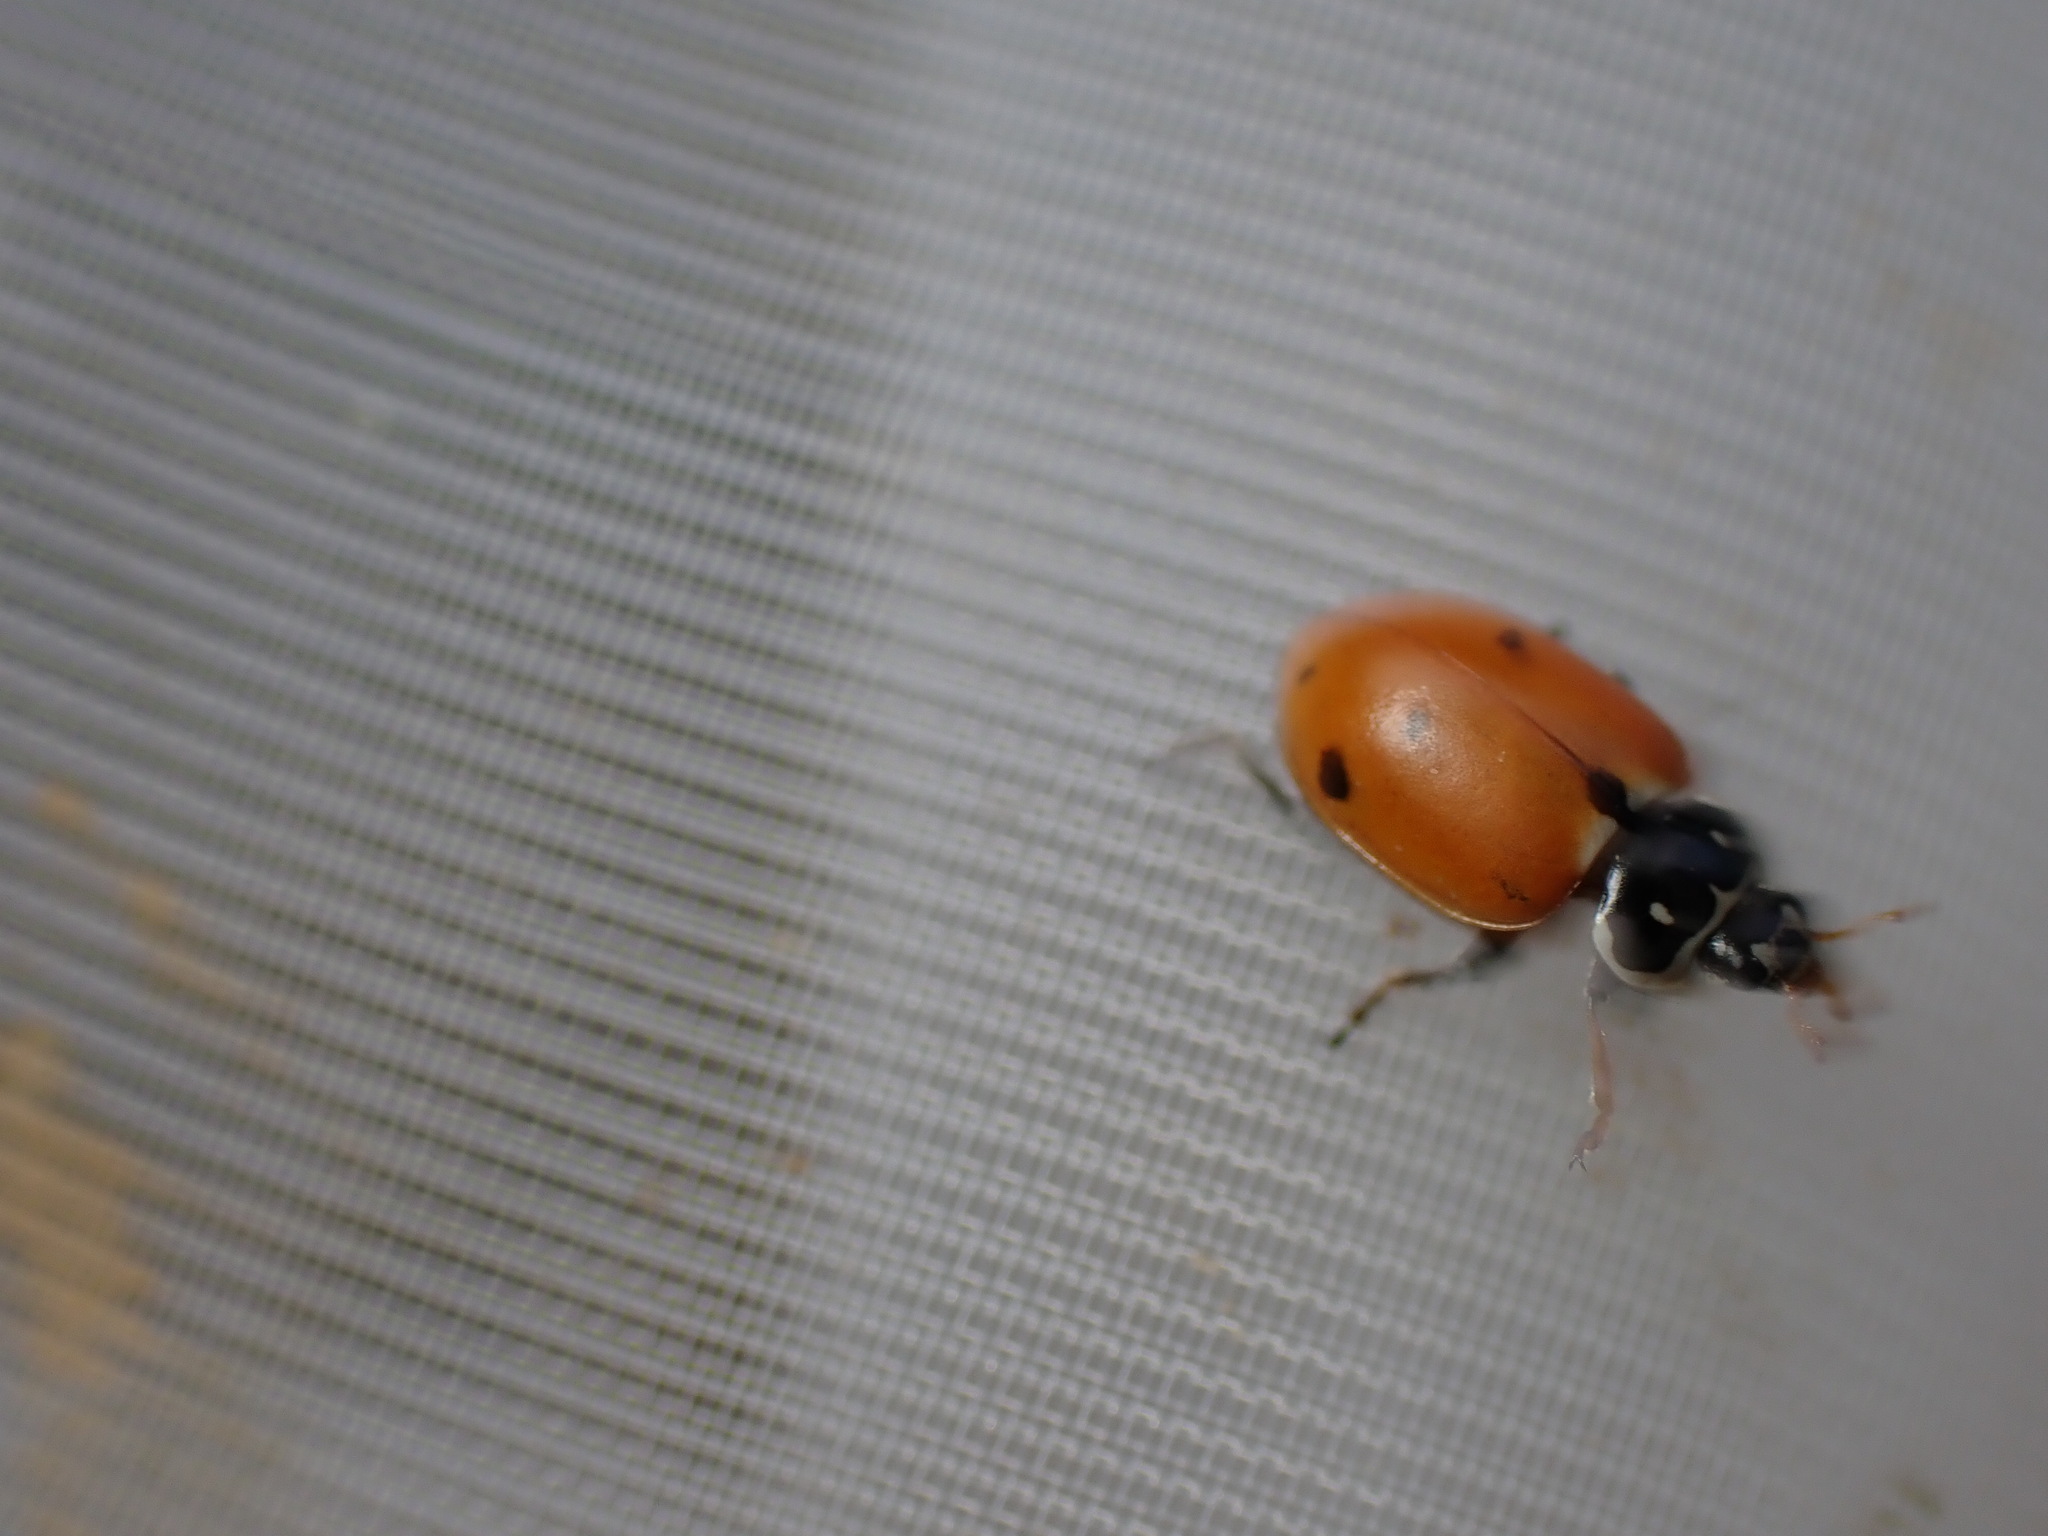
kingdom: Animalia
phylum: Arthropoda
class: Insecta
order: Coleoptera
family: Coccinellidae
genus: Hippodamia
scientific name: Hippodamia variegata
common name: Ladybird beetle
